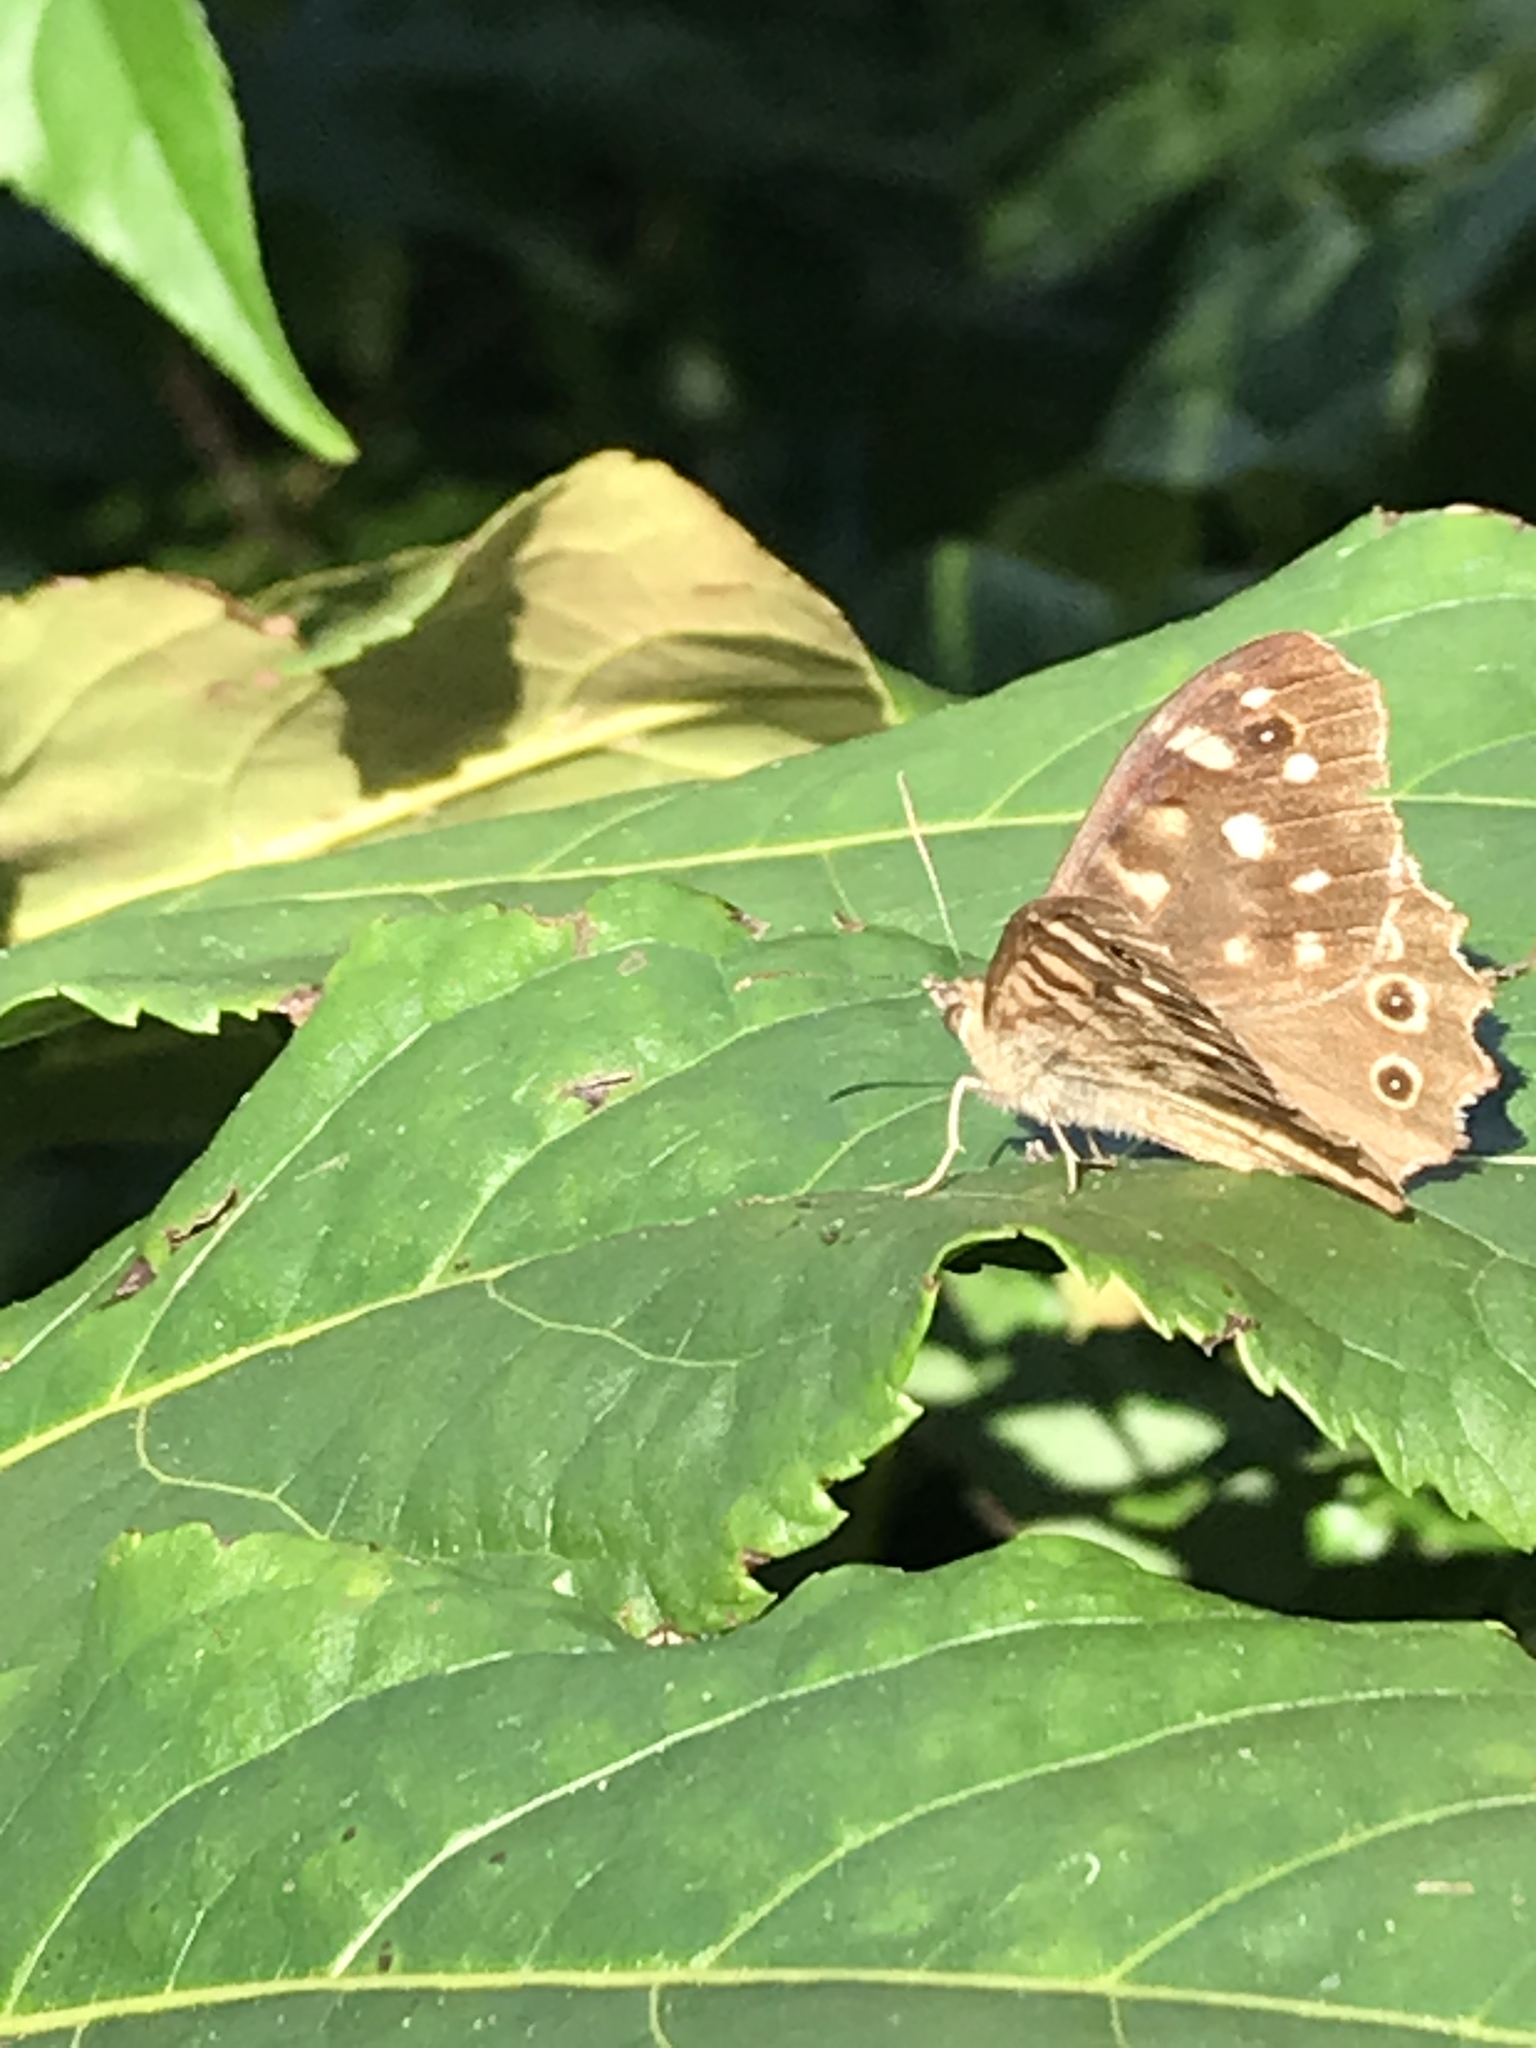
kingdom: Animalia
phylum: Arthropoda
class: Insecta
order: Lepidoptera
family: Nymphalidae
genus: Pararge
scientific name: Pararge aegeria
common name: Speckled wood
